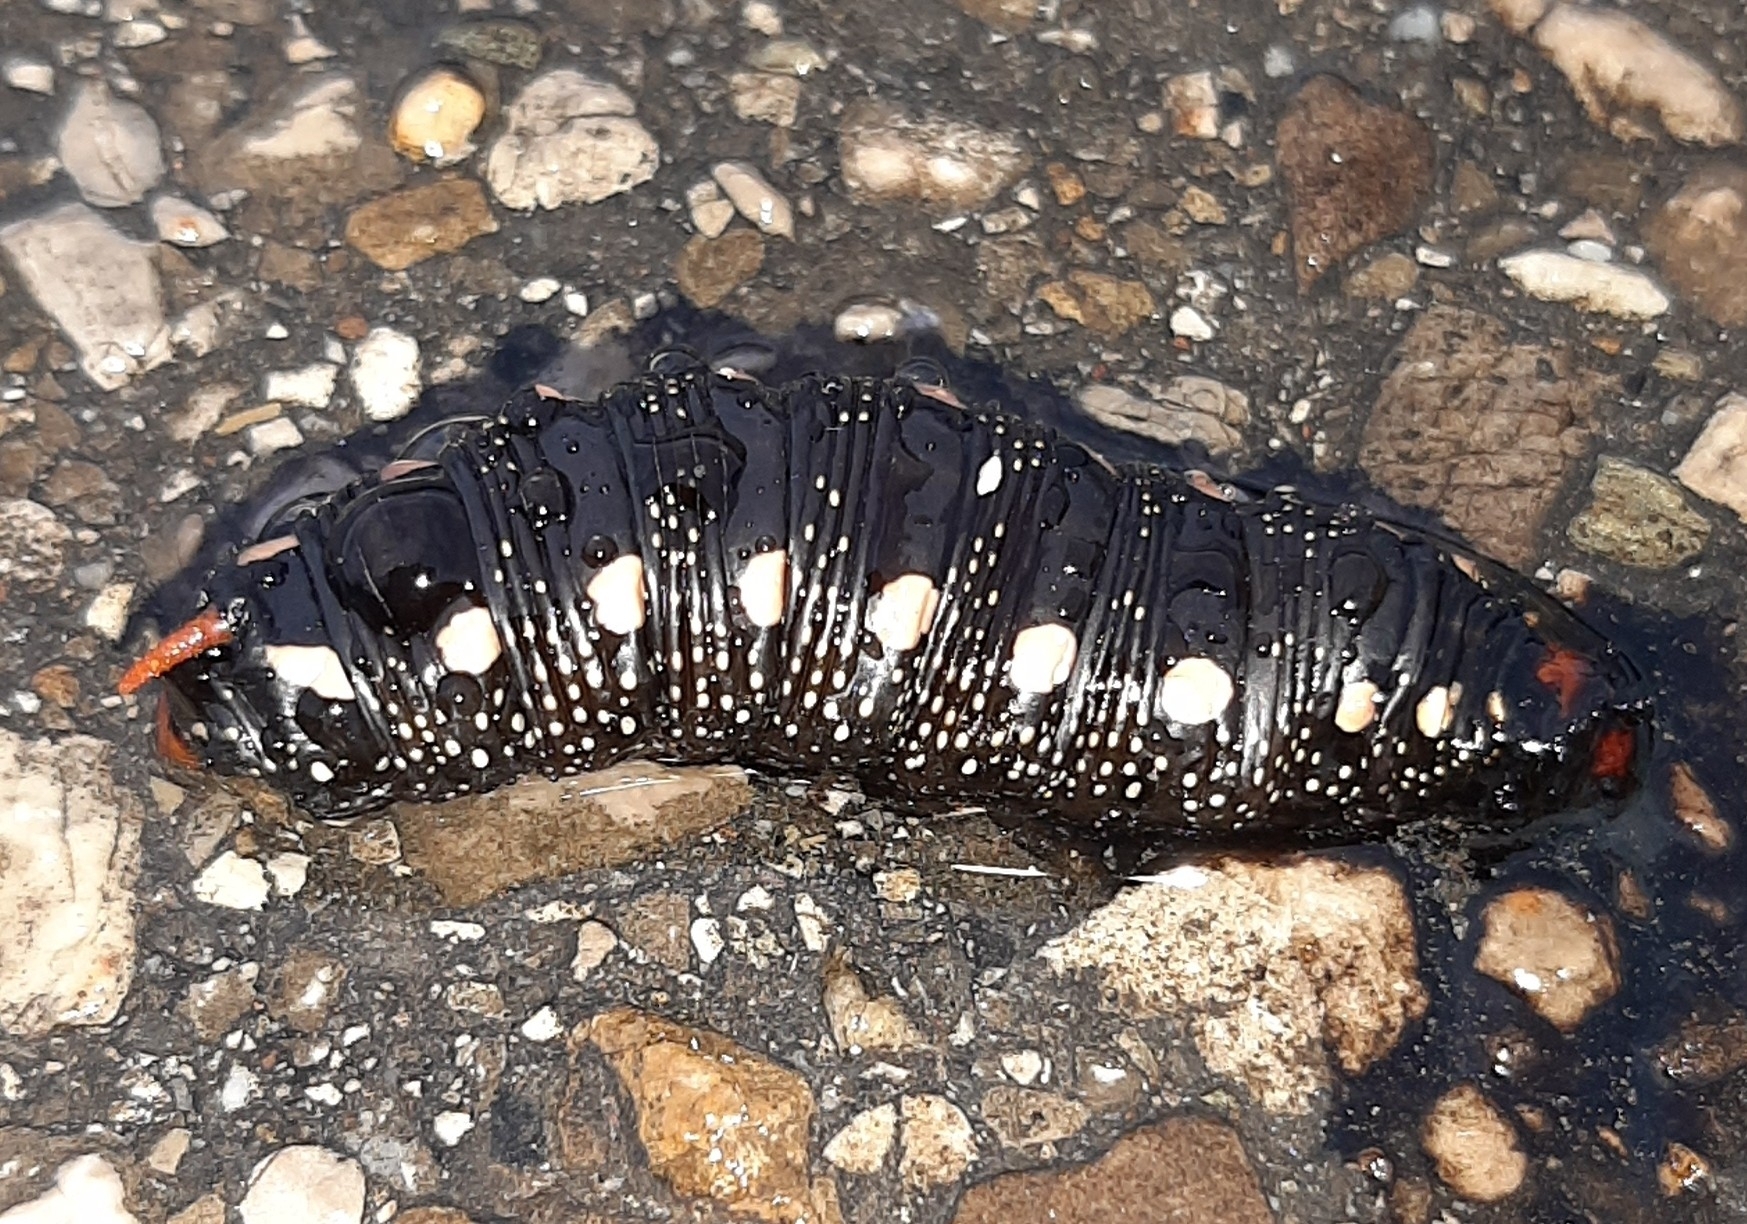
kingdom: Animalia
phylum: Arthropoda
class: Insecta
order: Lepidoptera
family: Sphingidae
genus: Hyles
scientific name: Hyles gallii
